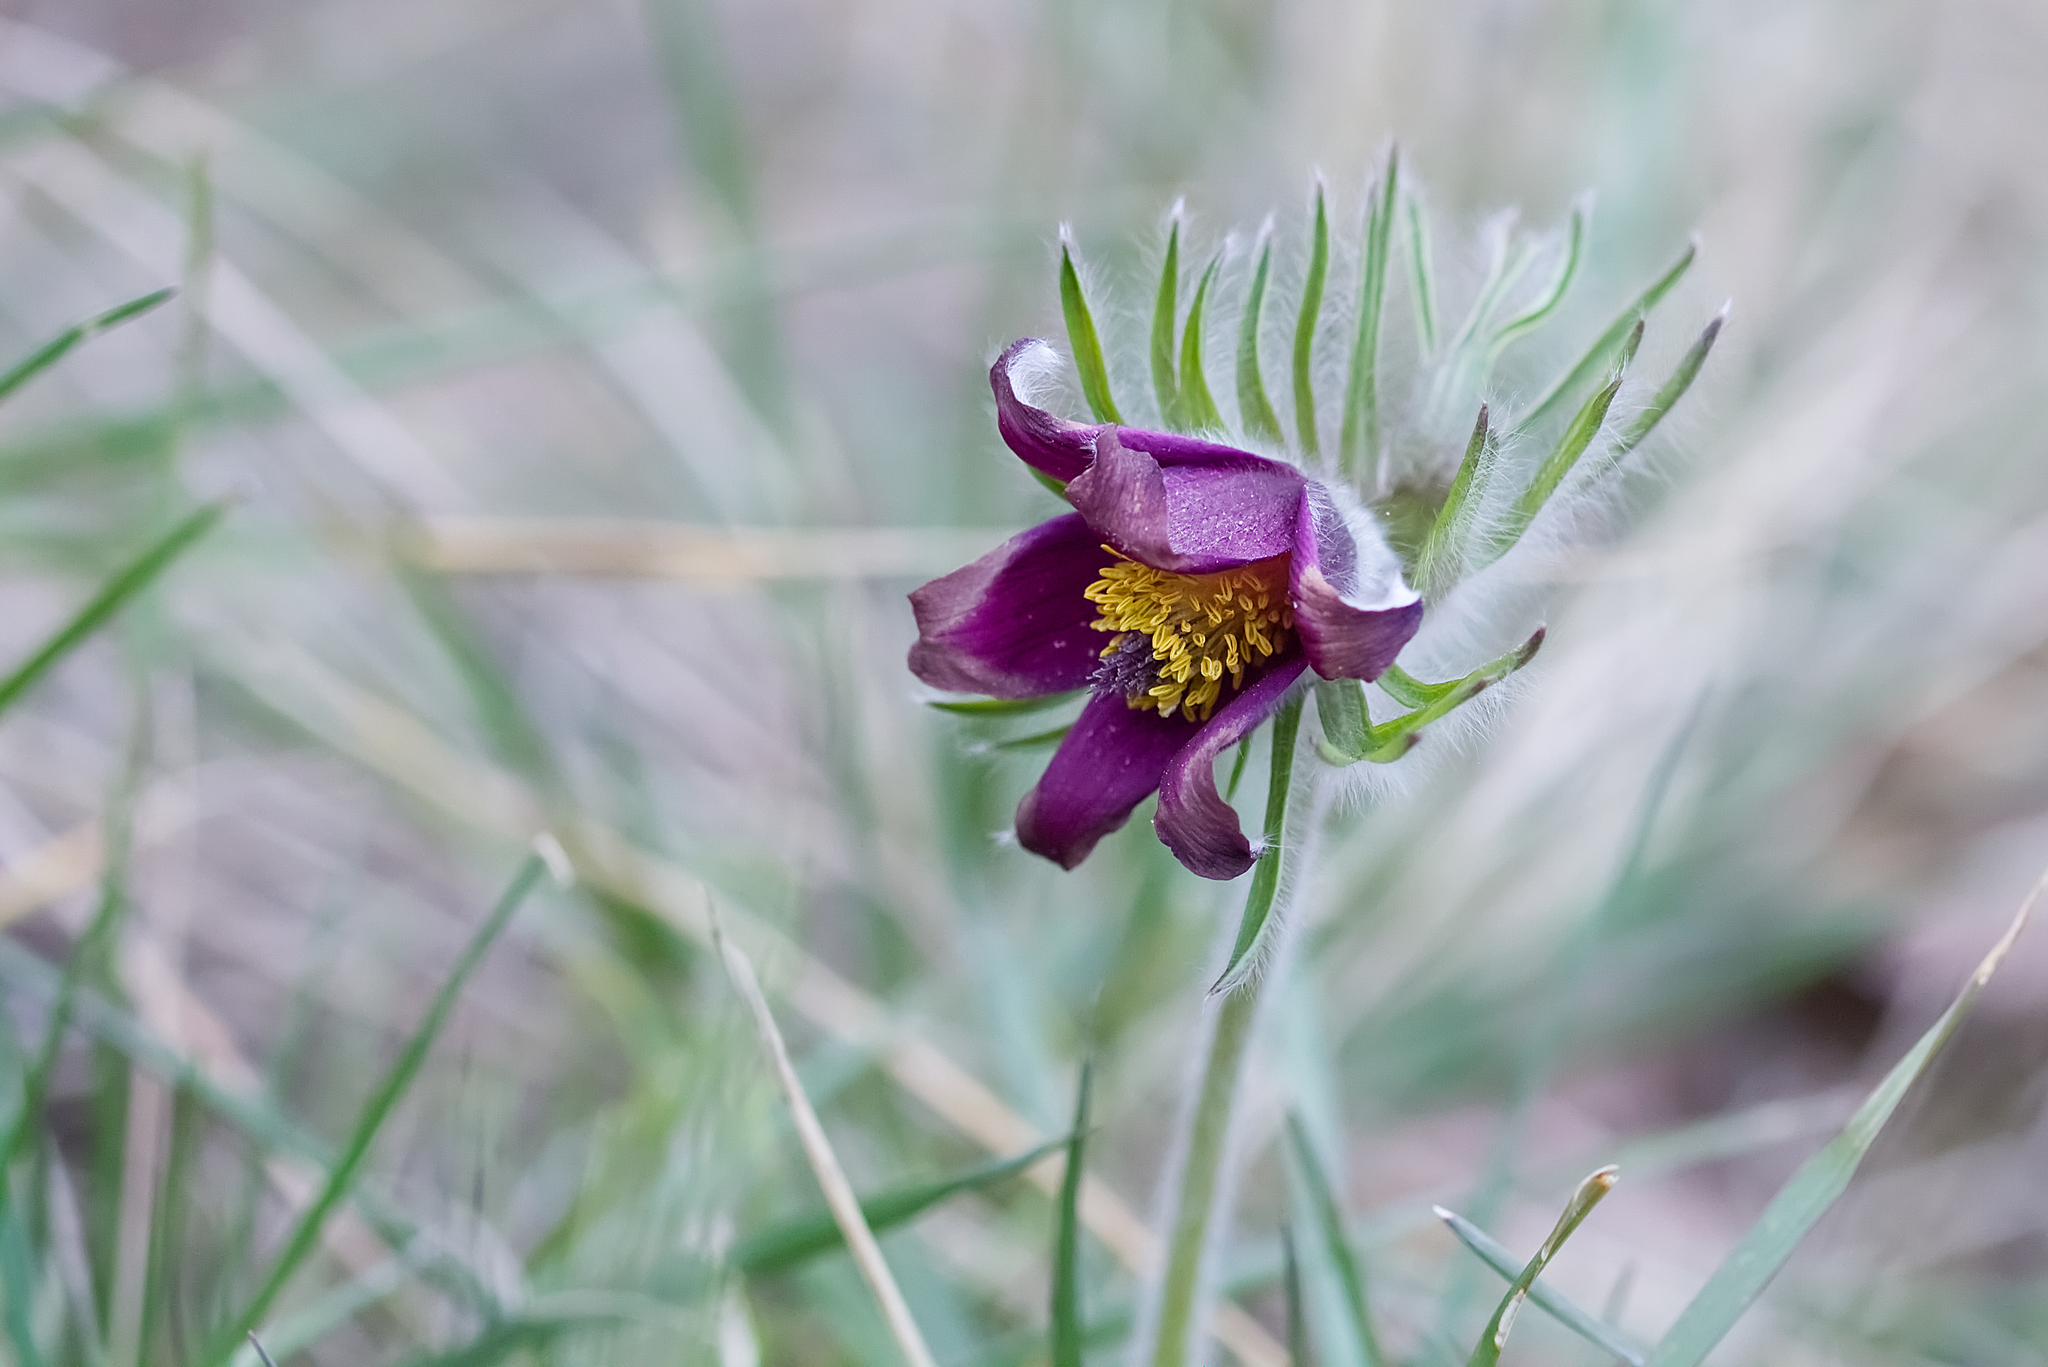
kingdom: Plantae
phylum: Tracheophyta
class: Magnoliopsida
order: Ranunculales
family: Ranunculaceae
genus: Pulsatilla
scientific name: Pulsatilla pratensis
